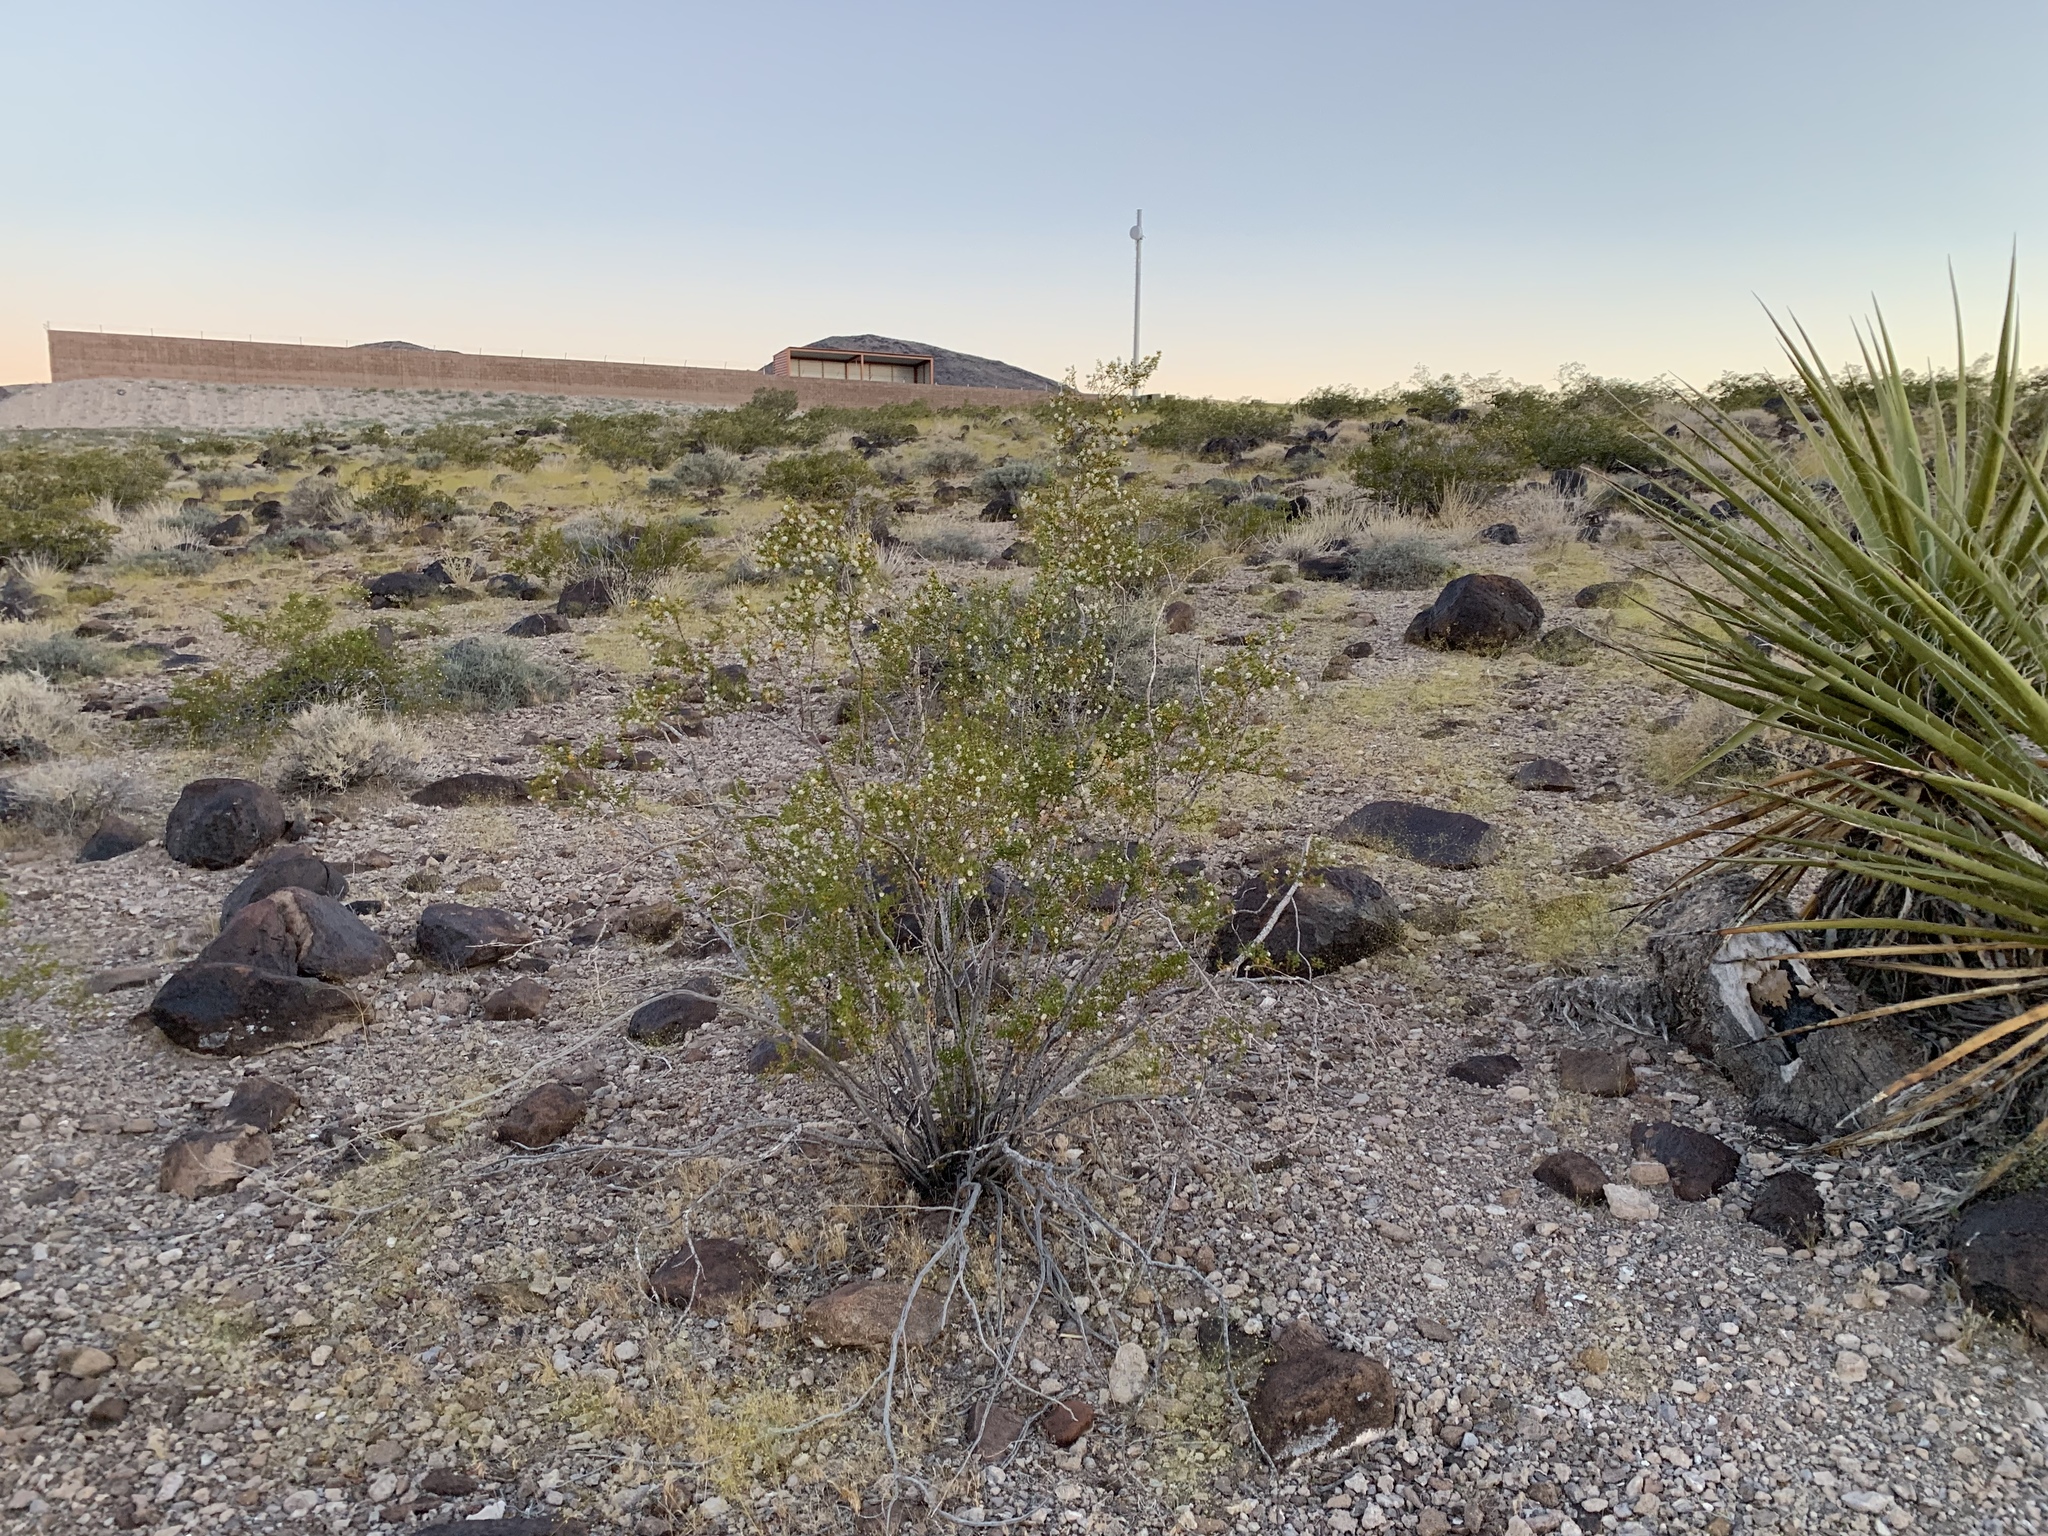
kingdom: Plantae
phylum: Tracheophyta
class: Magnoliopsida
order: Zygophyllales
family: Zygophyllaceae
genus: Larrea
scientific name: Larrea tridentata
